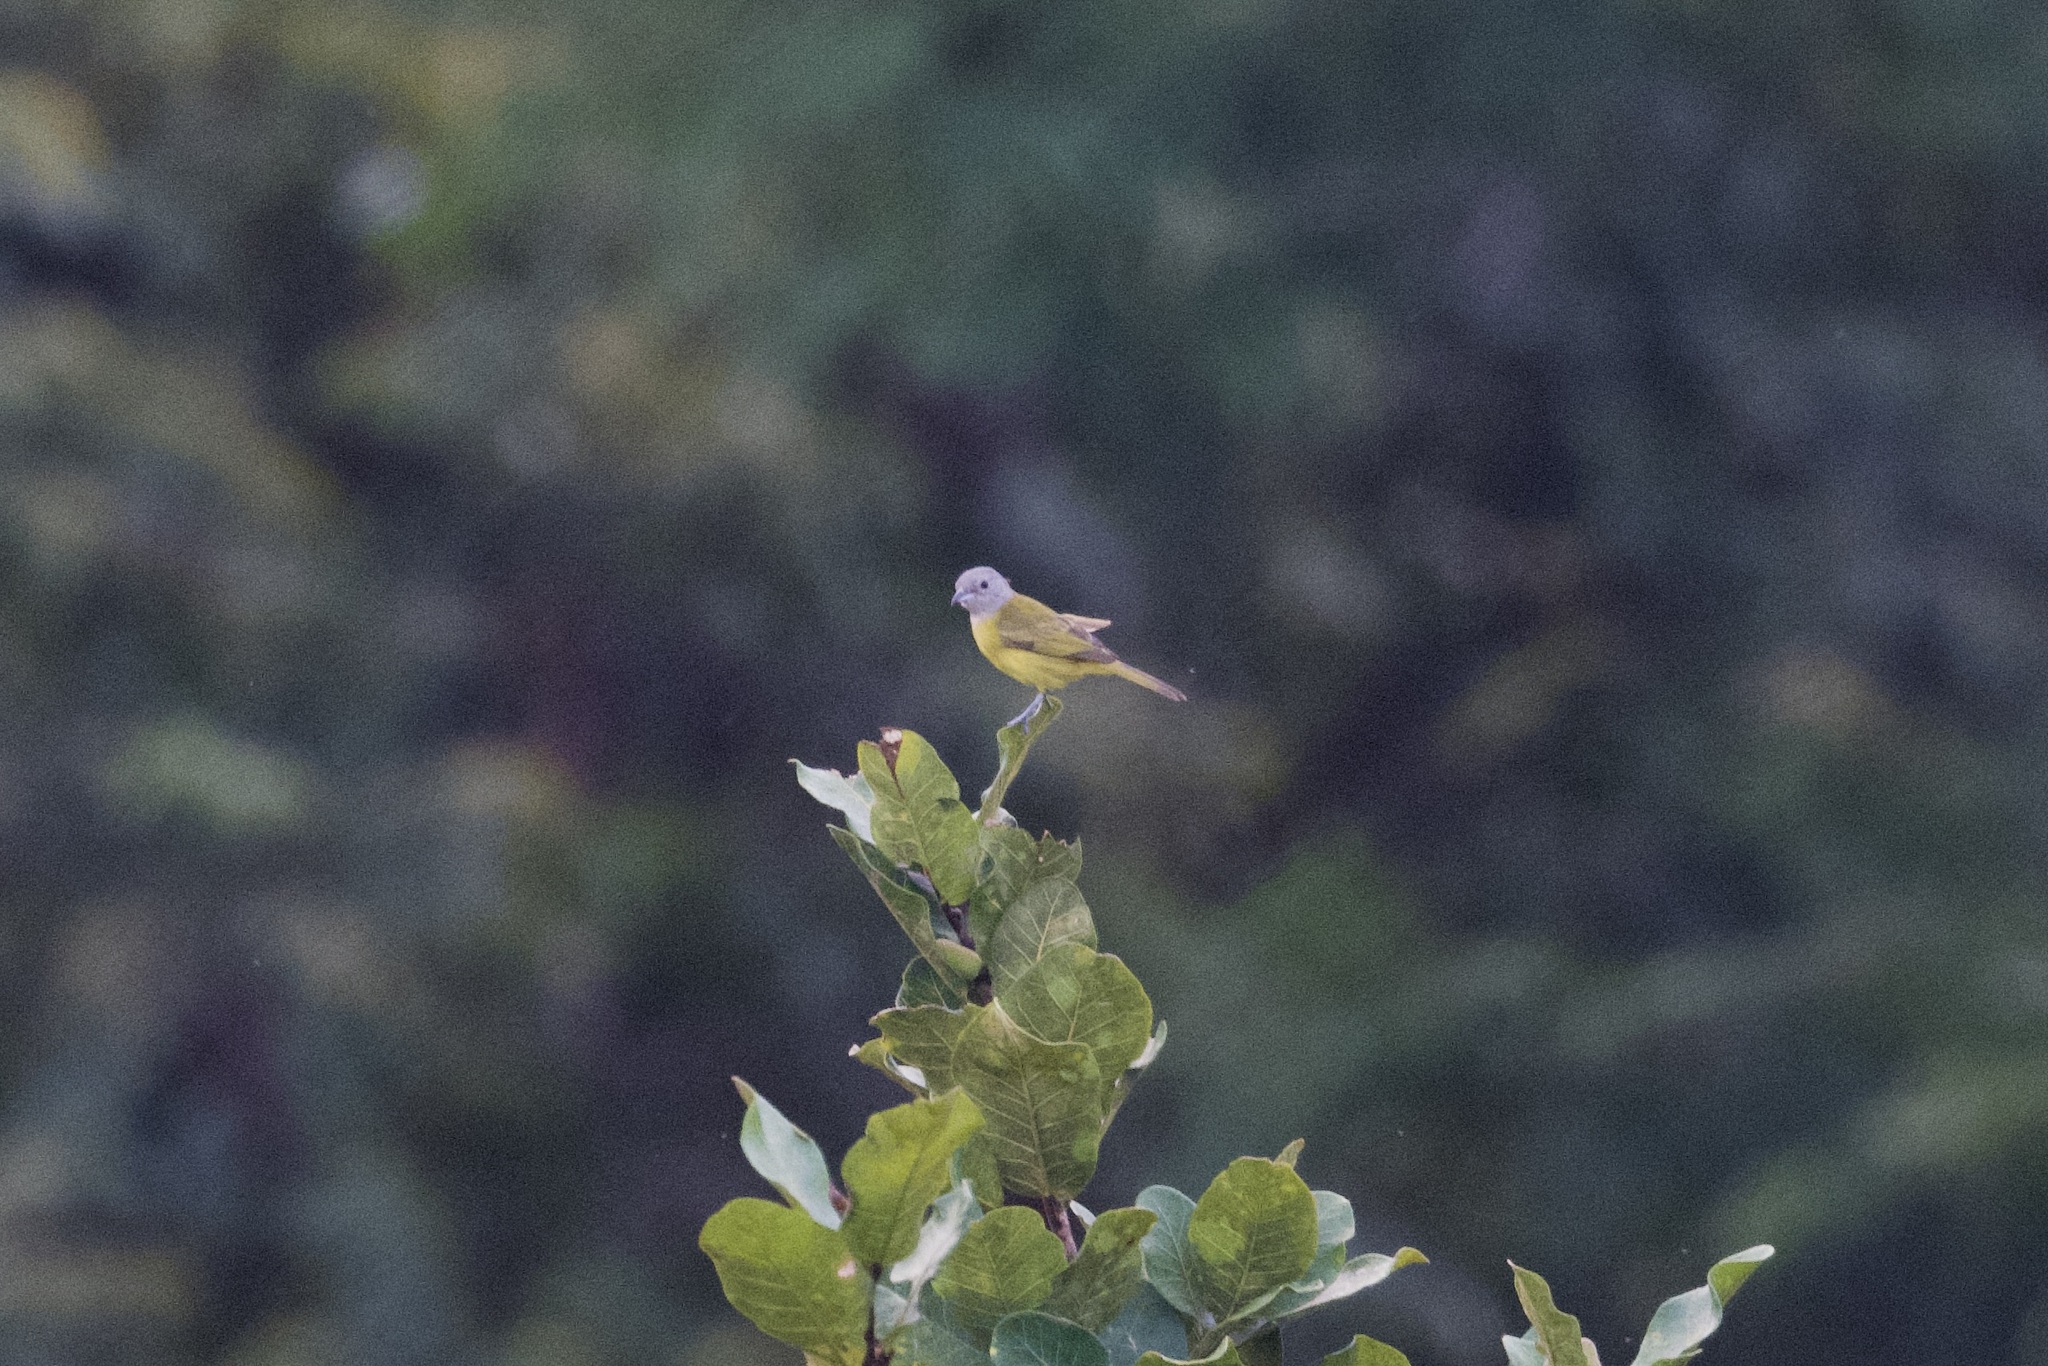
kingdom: Animalia
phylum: Chordata
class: Aves
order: Passeriformes
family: Thraupidae
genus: Loriotus
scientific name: Loriotus luctuosus
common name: White-shouldered tanager
